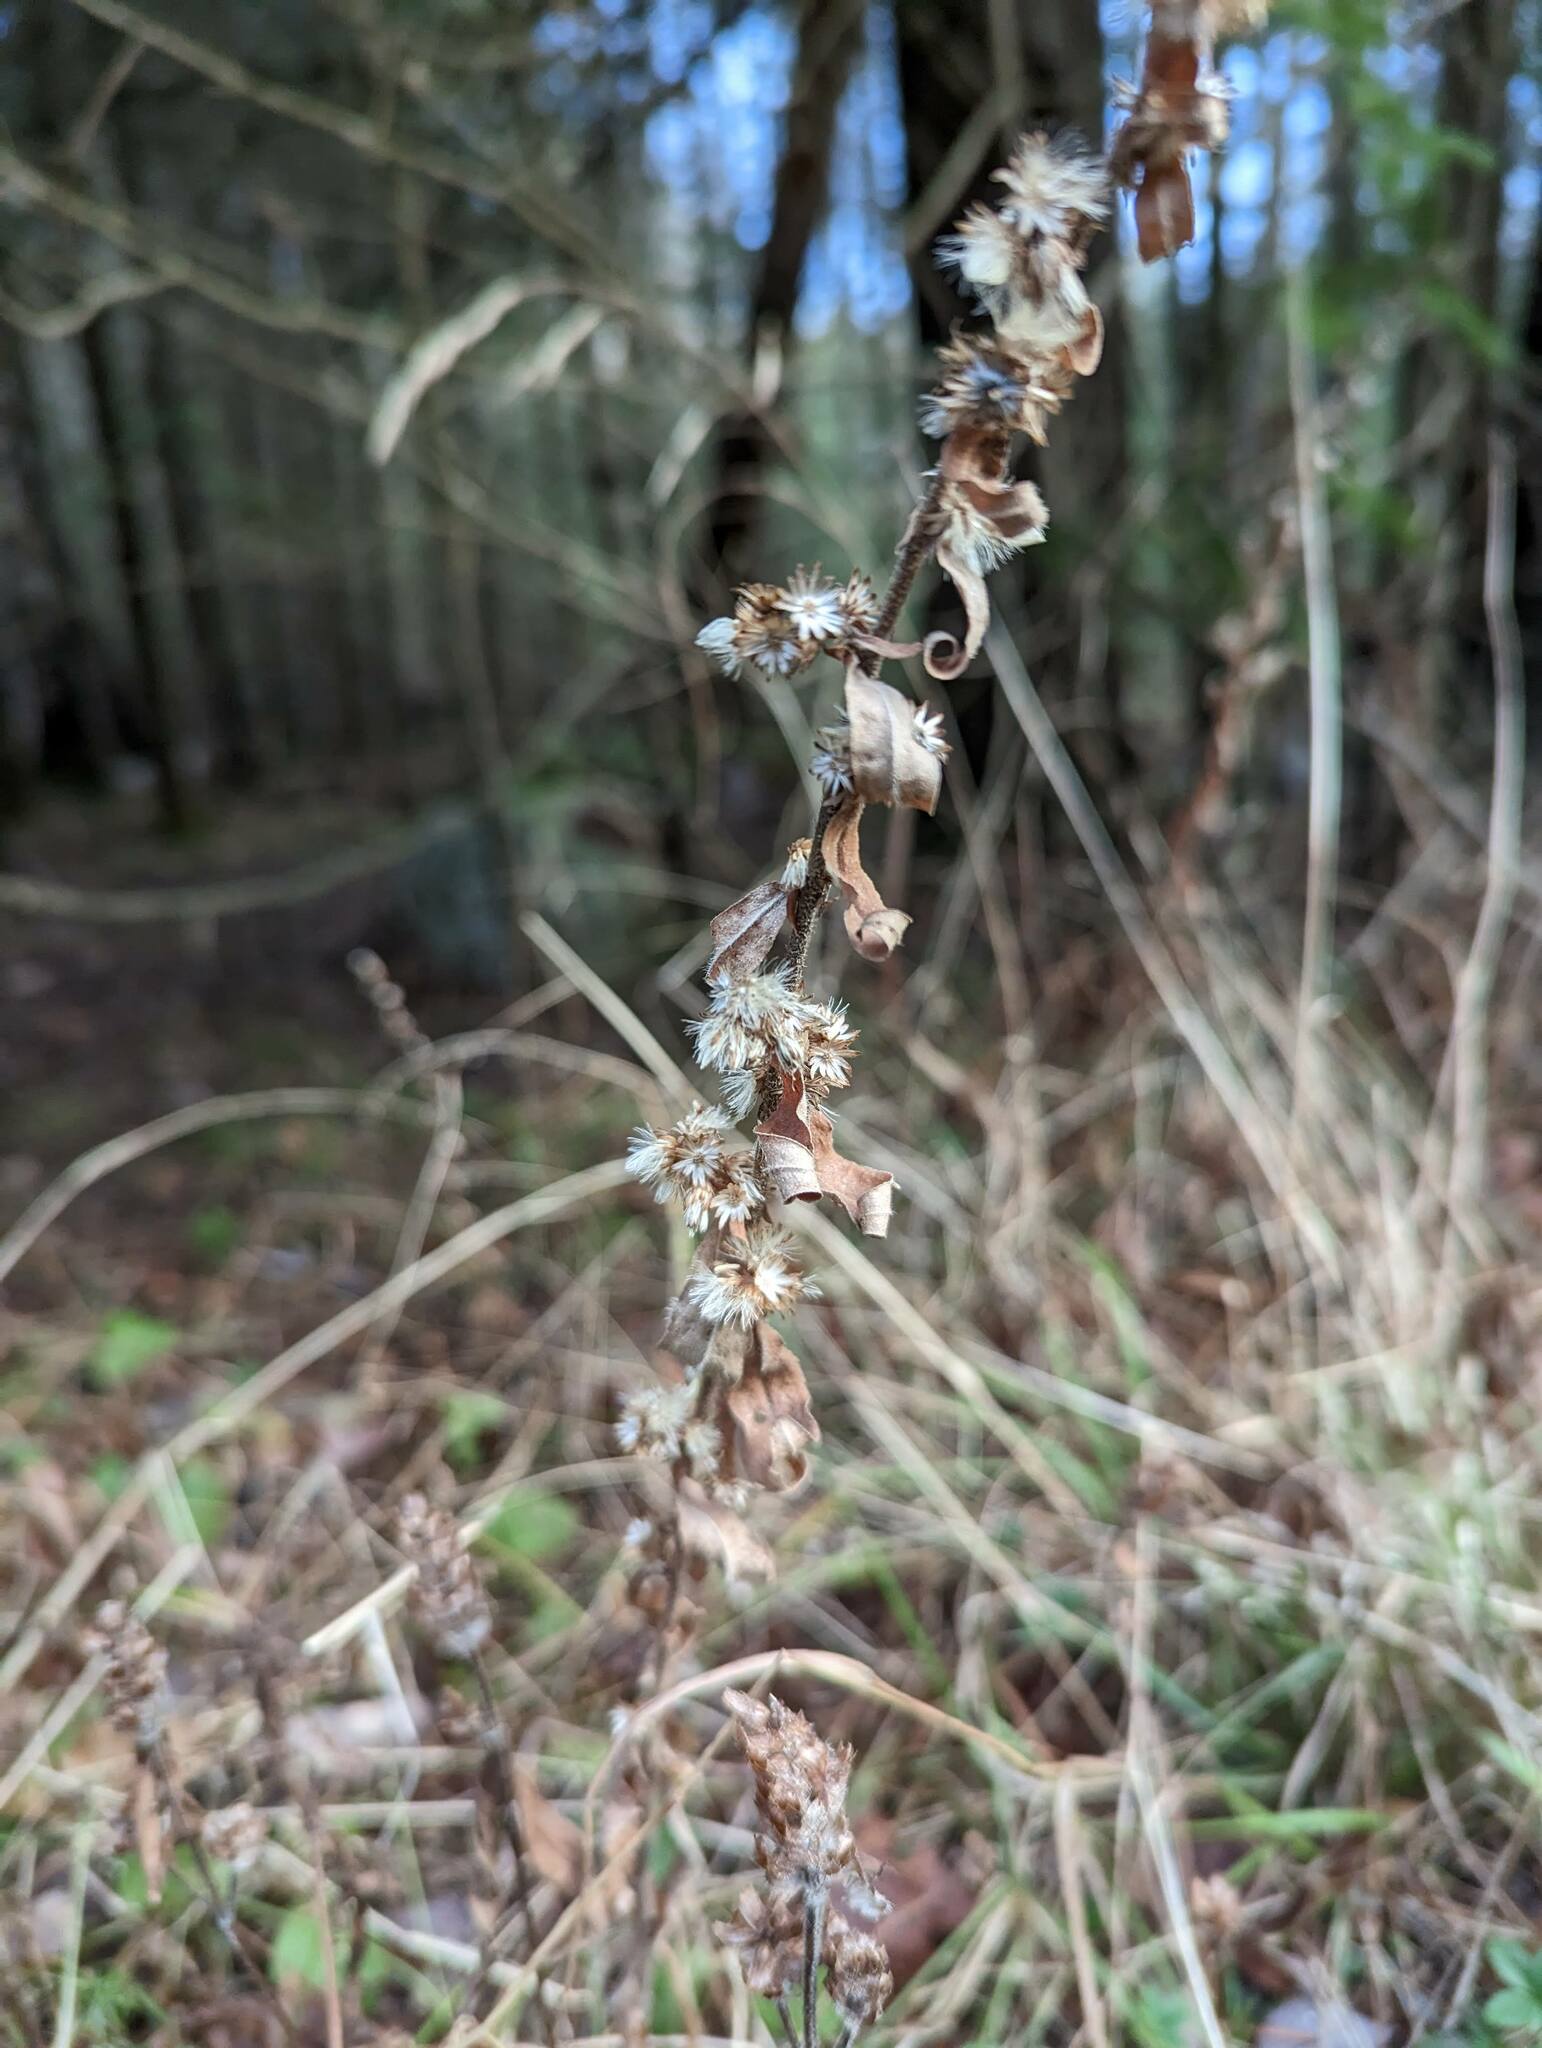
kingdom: Plantae
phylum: Tracheophyta
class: Magnoliopsida
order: Asterales
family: Asteraceae
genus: Solidago
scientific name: Solidago caesia
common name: Woodland goldenrod
